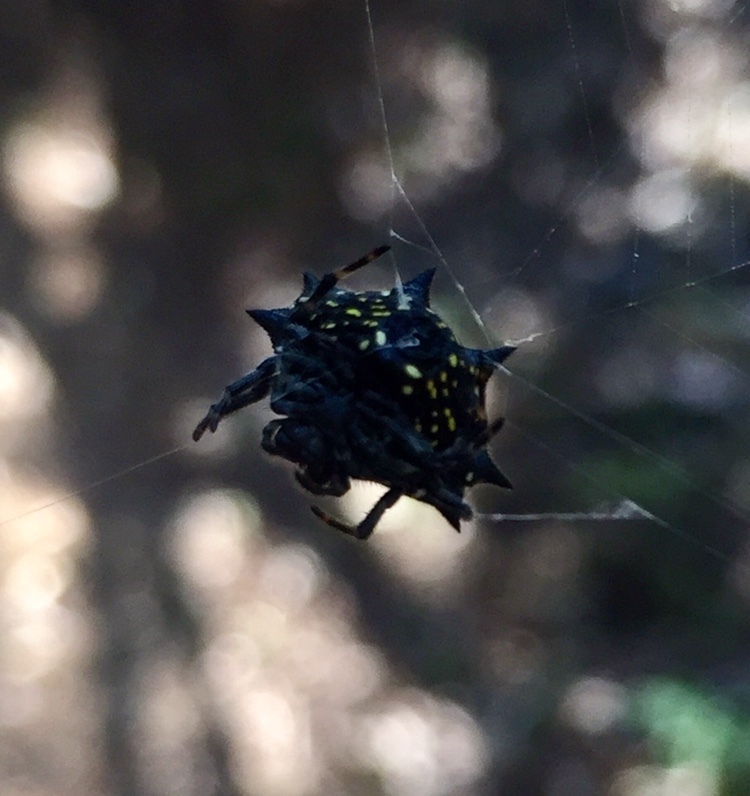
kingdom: Animalia
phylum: Arthropoda
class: Arachnida
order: Araneae
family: Araneidae
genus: Gasteracantha
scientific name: Gasteracantha cancriformis
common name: Orb weavers
